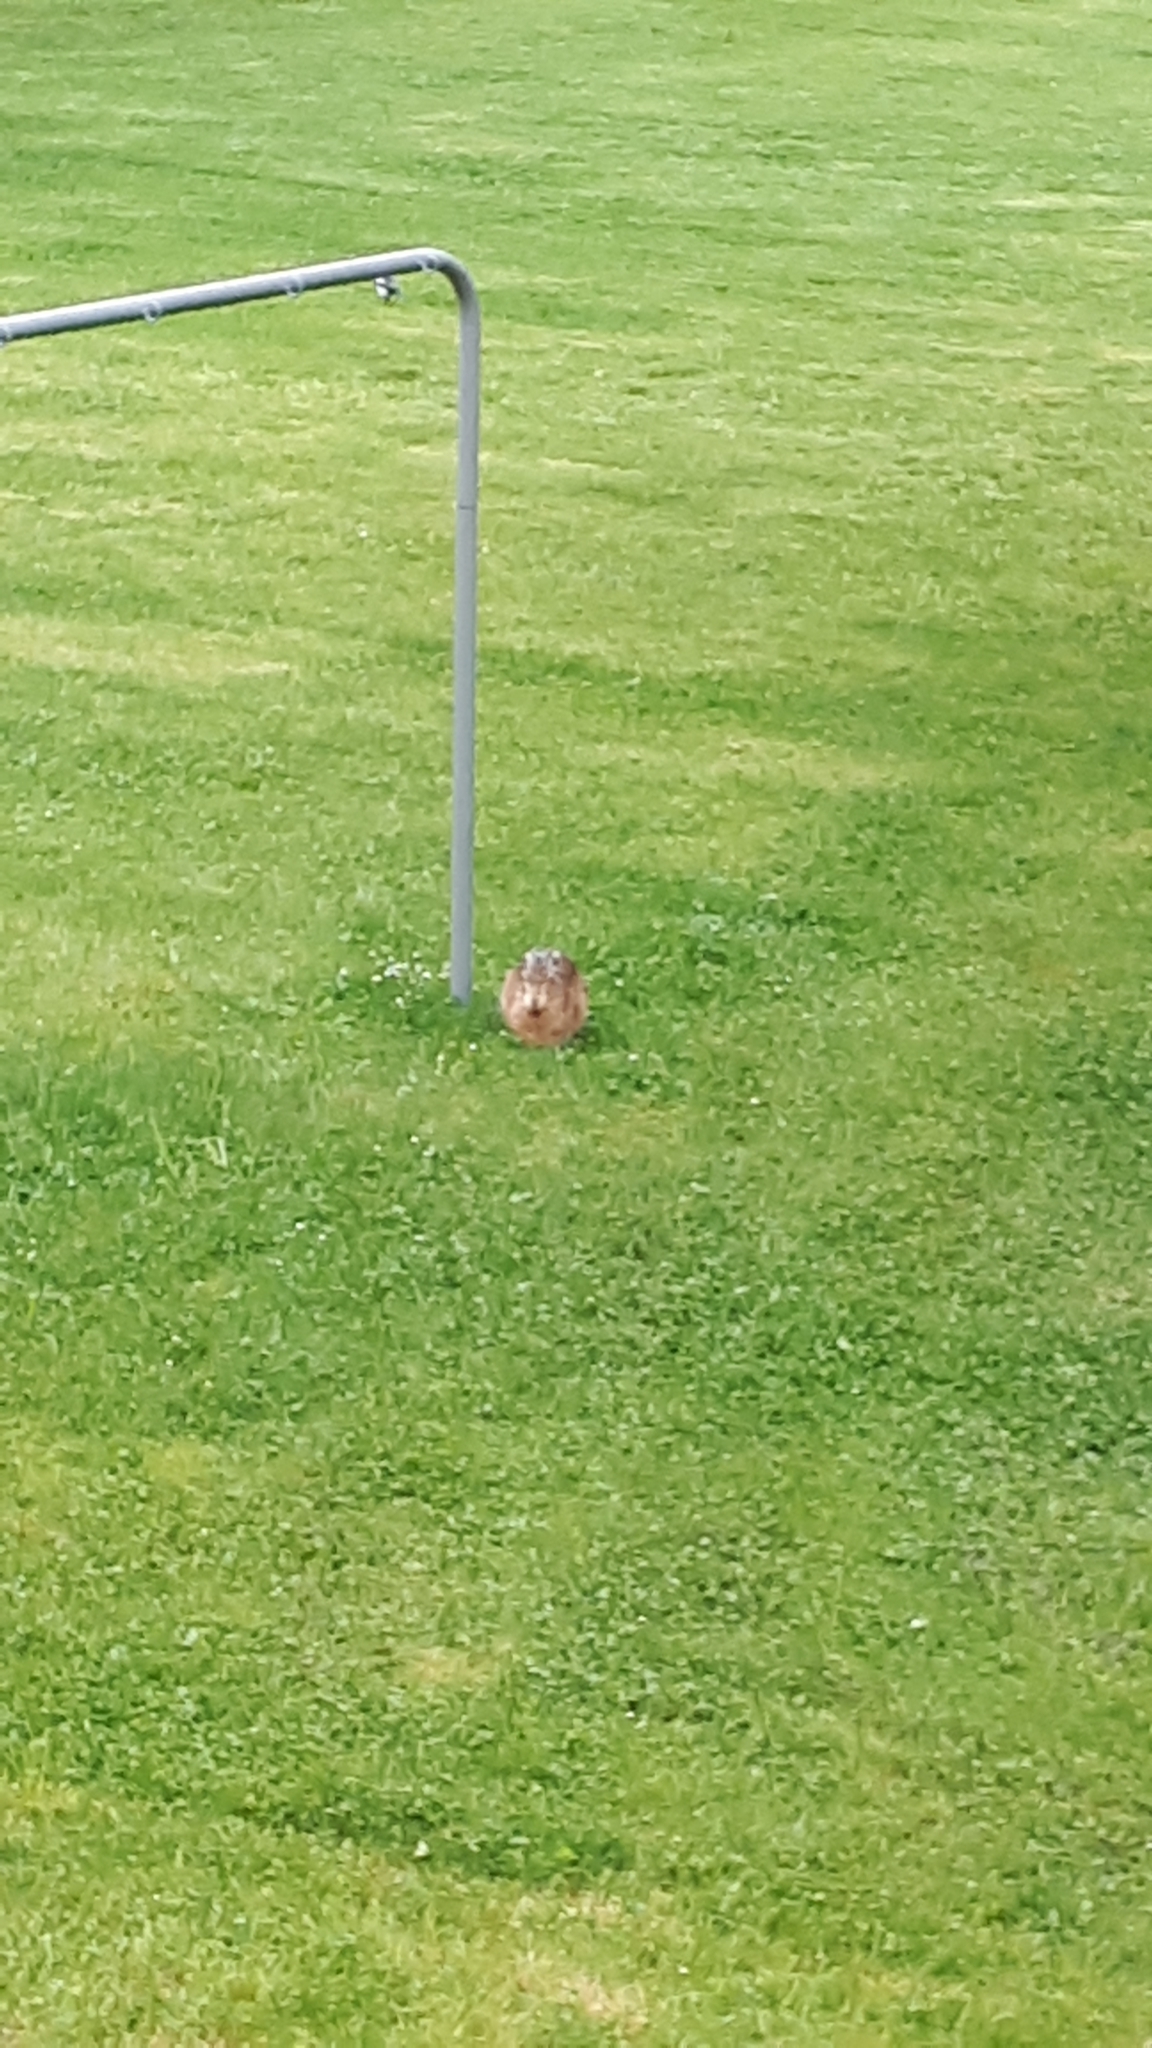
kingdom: Animalia
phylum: Chordata
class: Mammalia
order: Lagomorpha
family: Leporidae
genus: Lepus
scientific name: Lepus europaeus
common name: European hare
